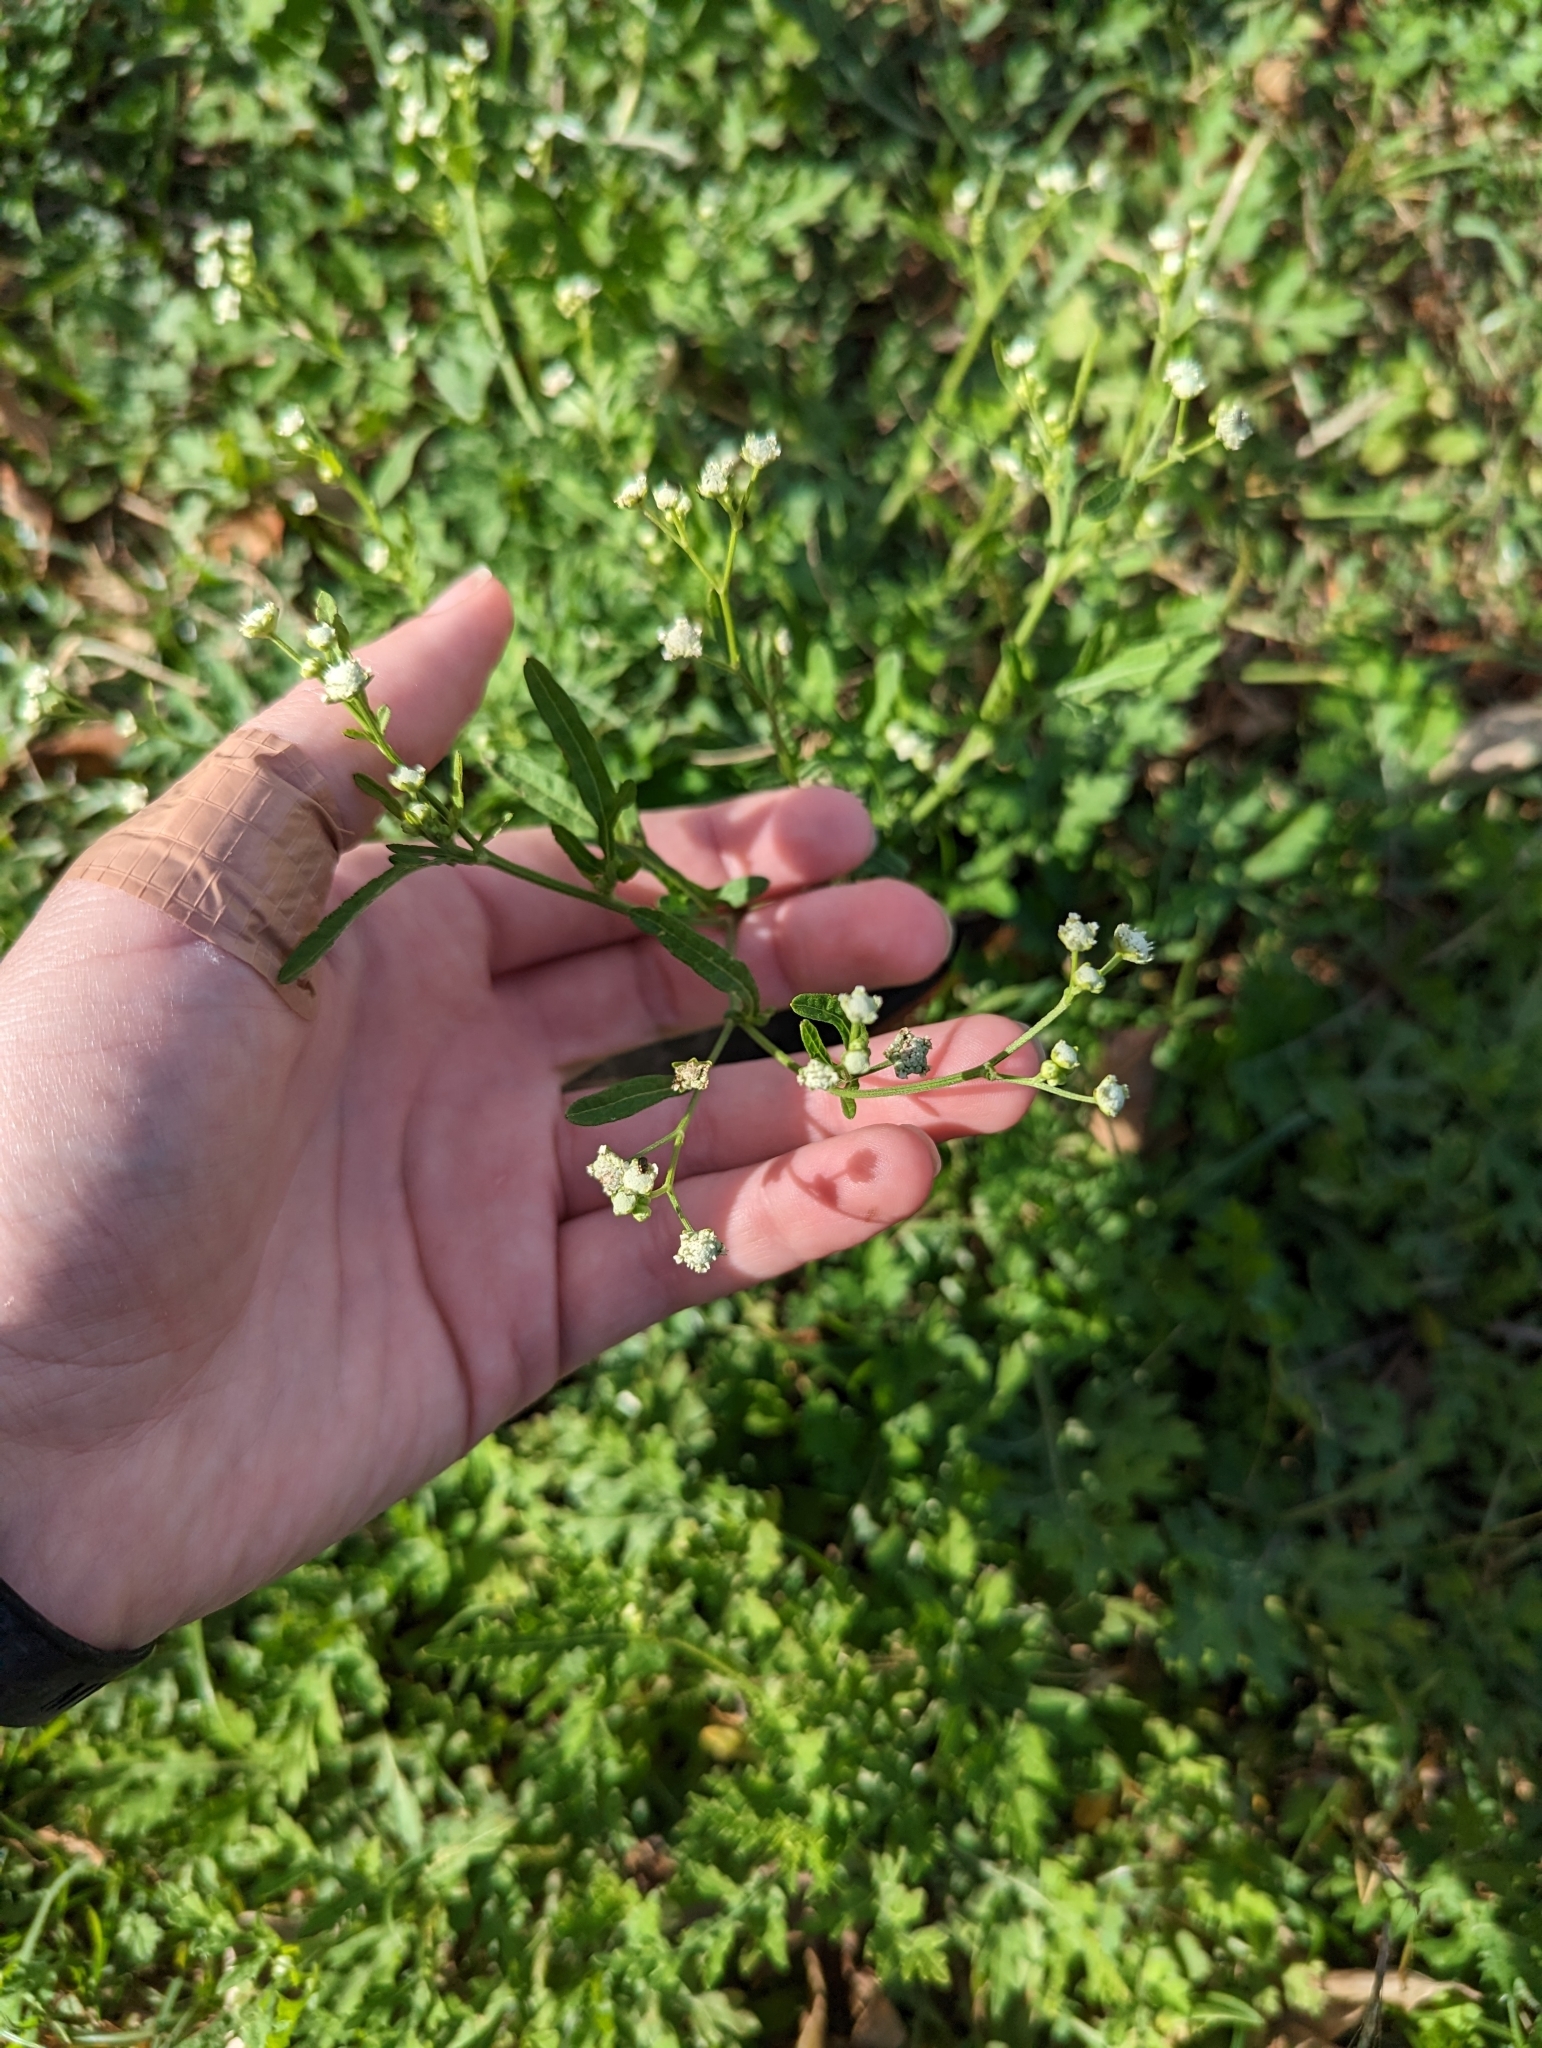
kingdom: Plantae
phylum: Tracheophyta
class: Magnoliopsida
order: Asterales
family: Asteraceae
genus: Parthenium
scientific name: Parthenium hysterophorus
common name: Santa maria feverfew
